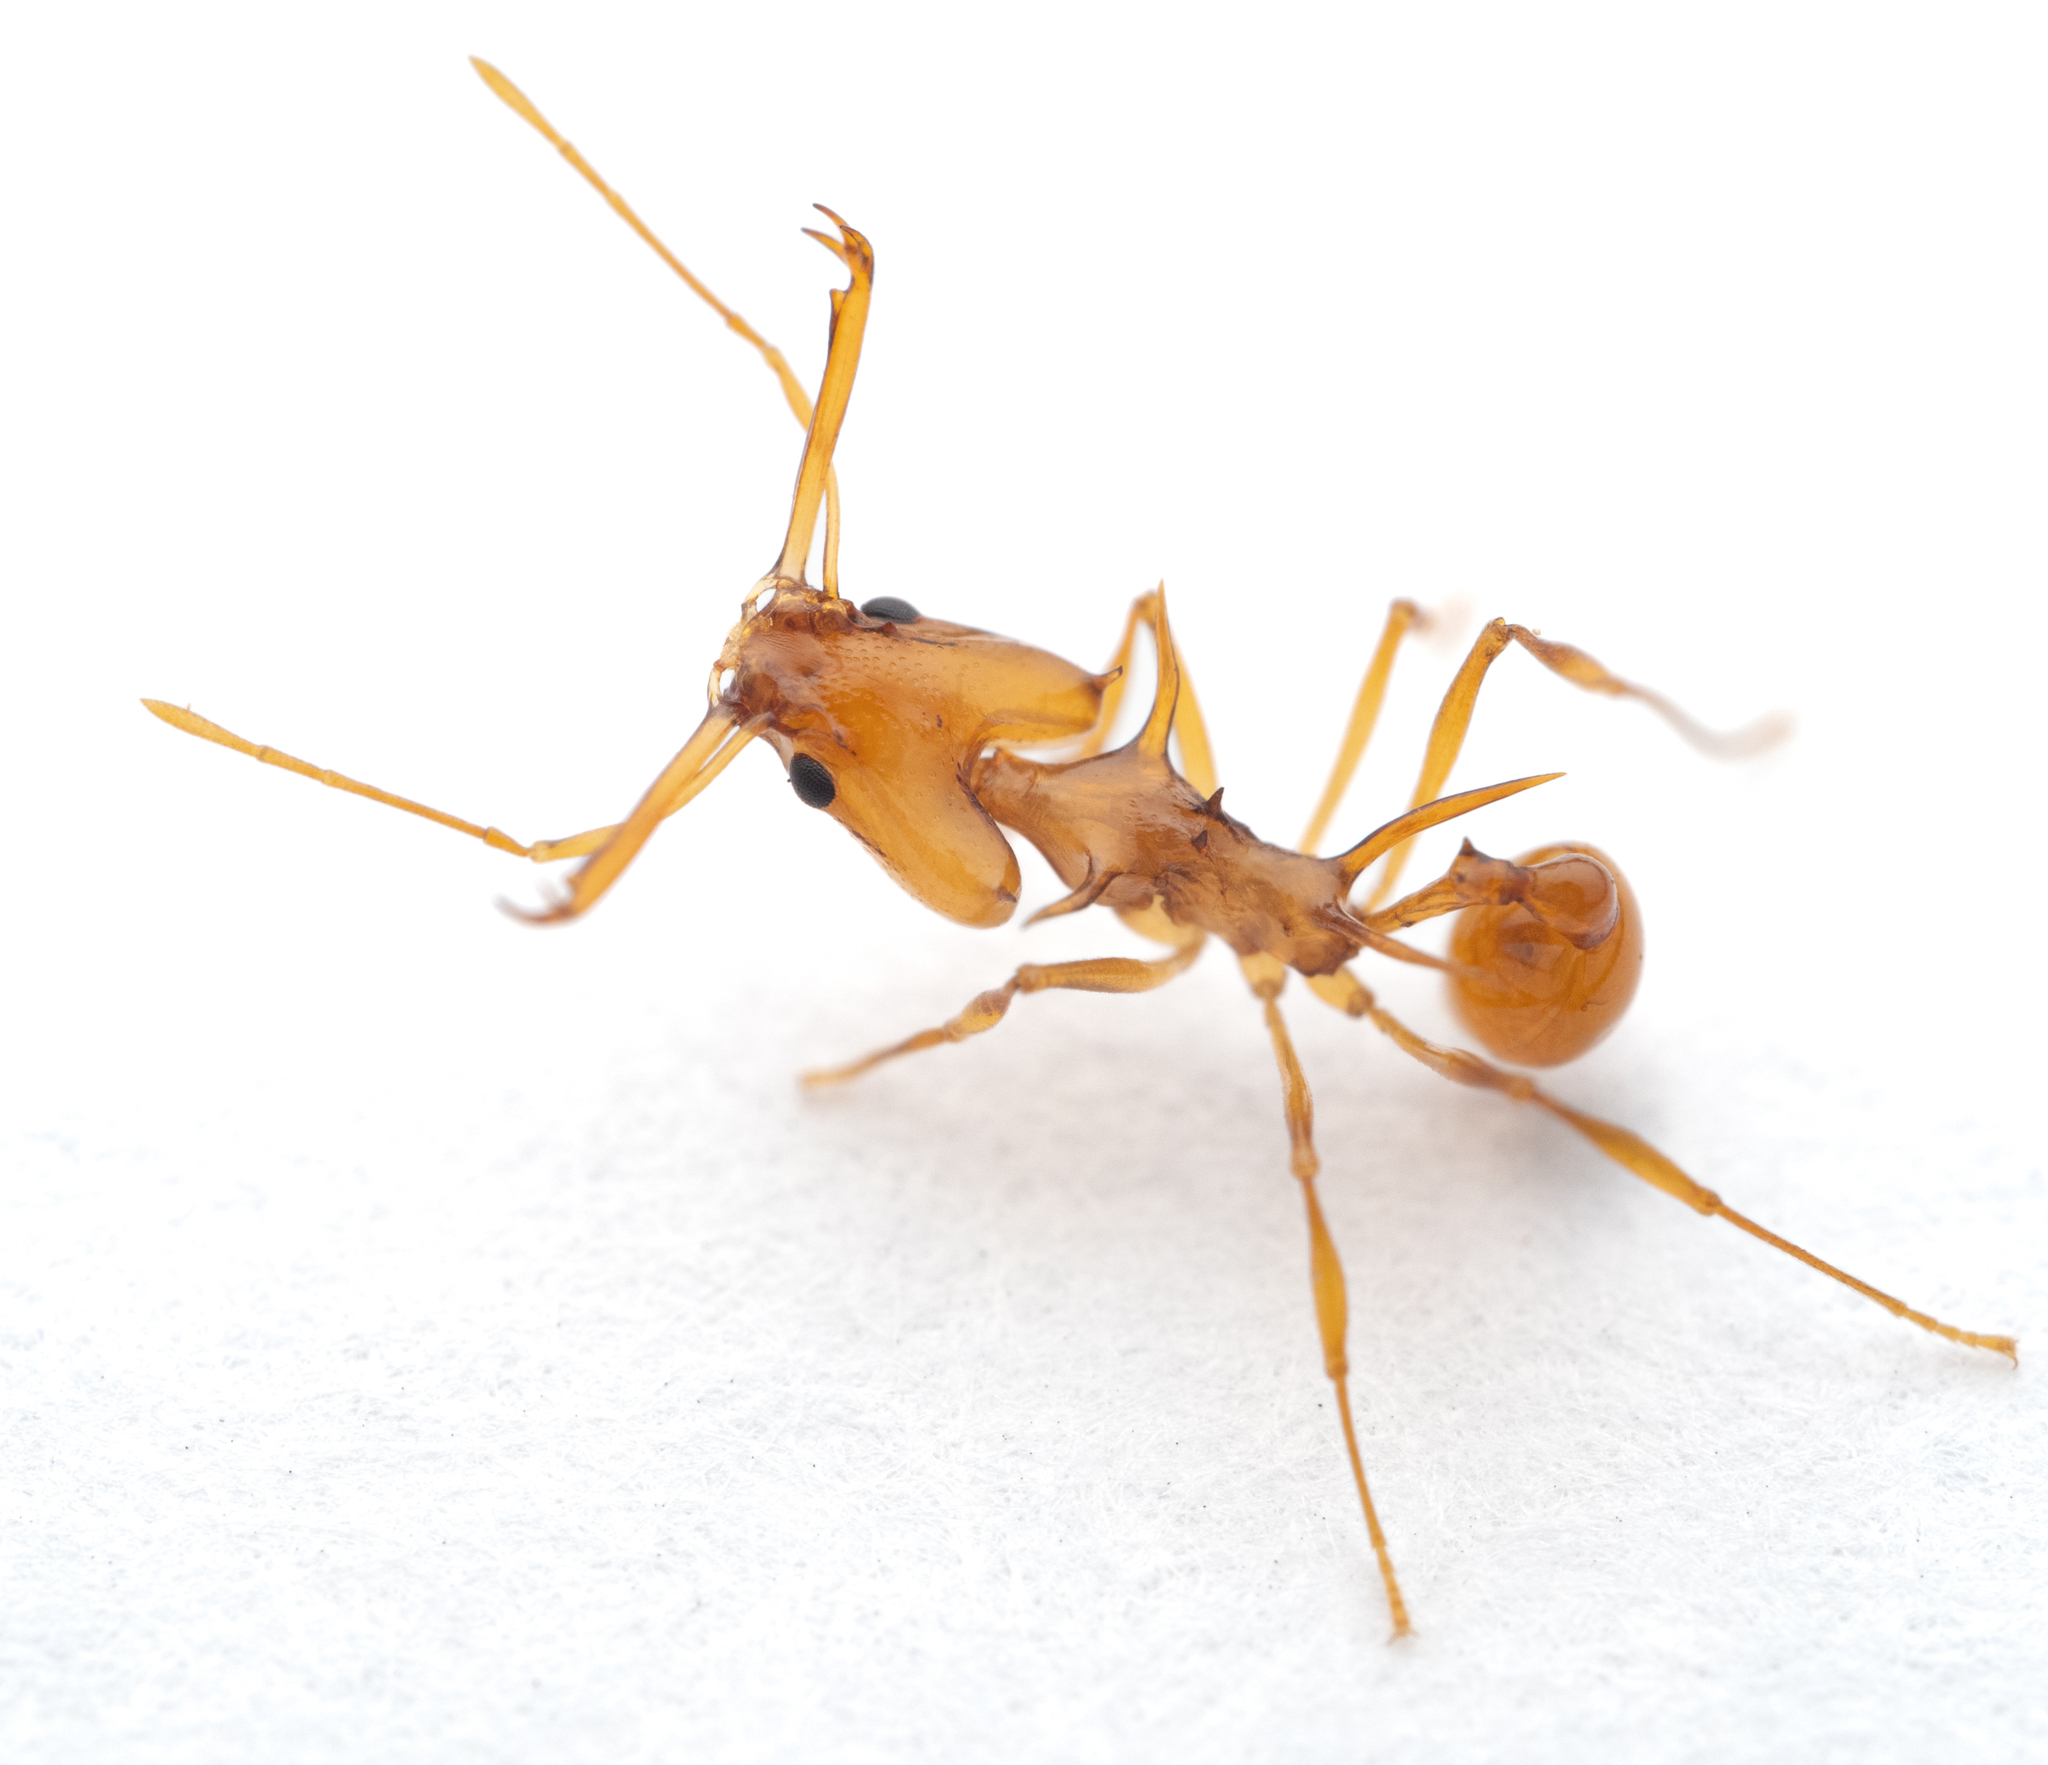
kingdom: Animalia
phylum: Arthropoda
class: Insecta
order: Hymenoptera
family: Formicidae
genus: Orectognathus
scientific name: Orectognathus hystrix
